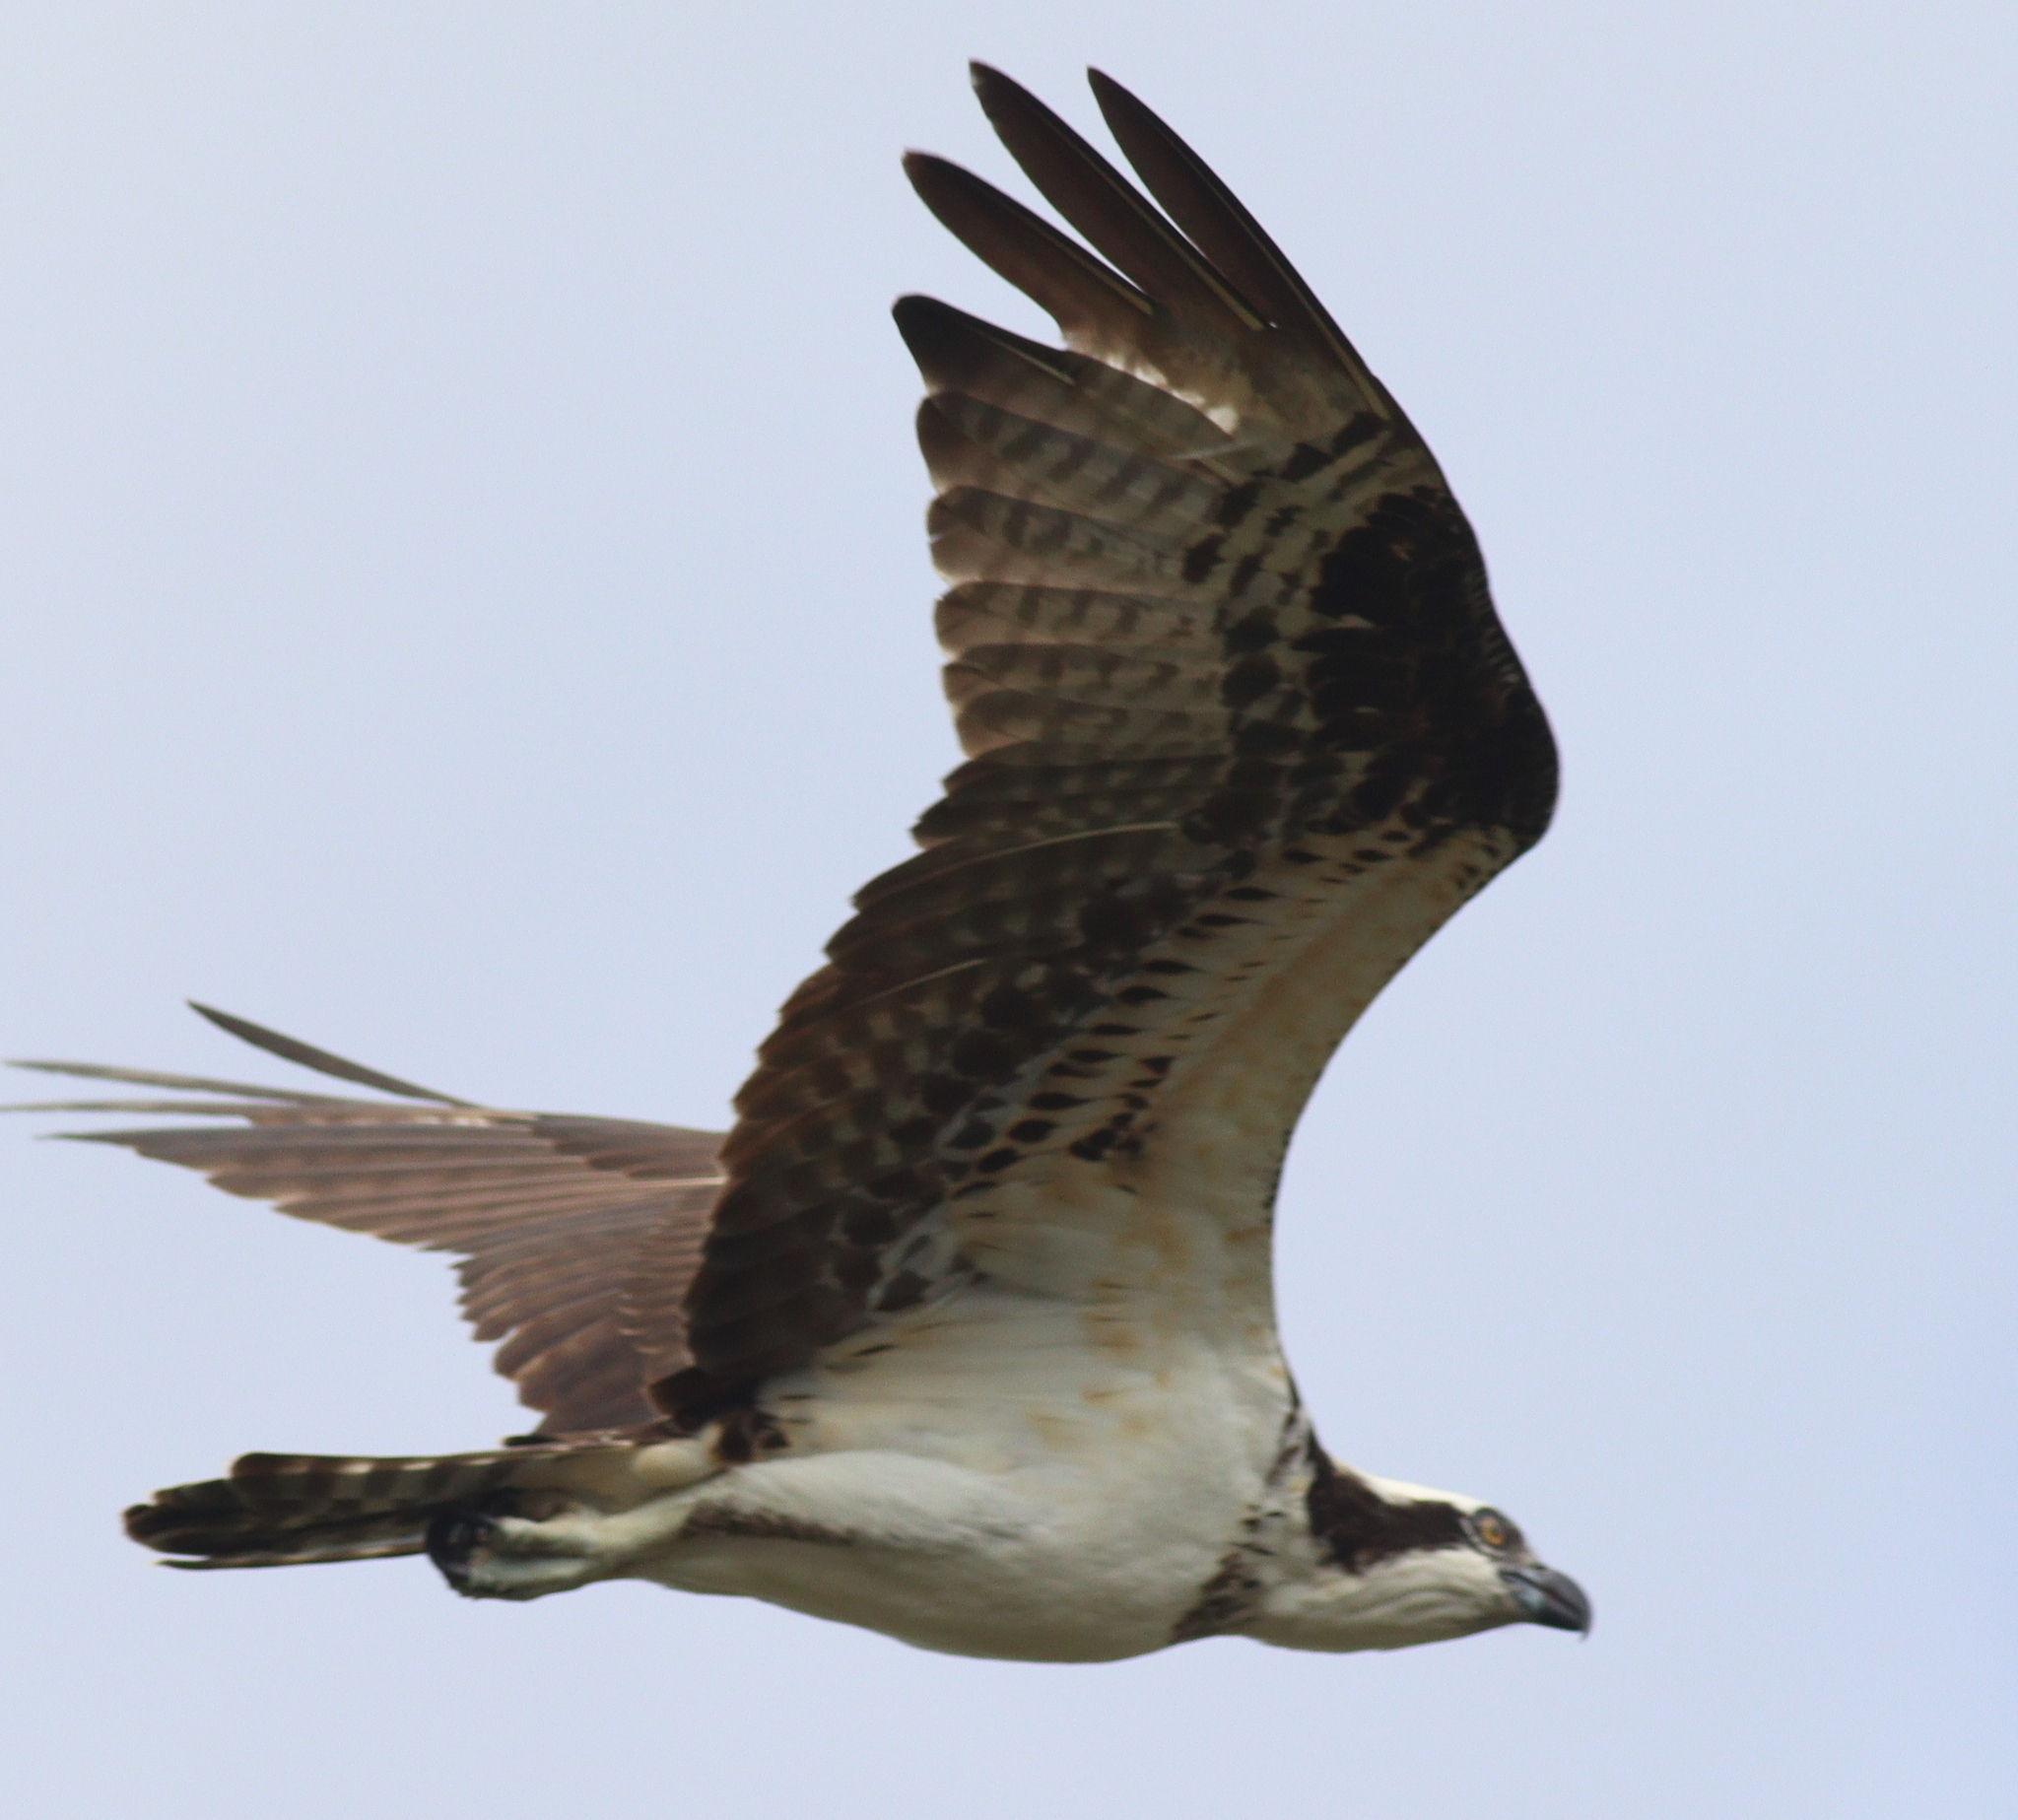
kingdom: Animalia
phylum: Chordata
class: Aves
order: Accipitriformes
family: Pandionidae
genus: Pandion
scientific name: Pandion haliaetus
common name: Osprey
